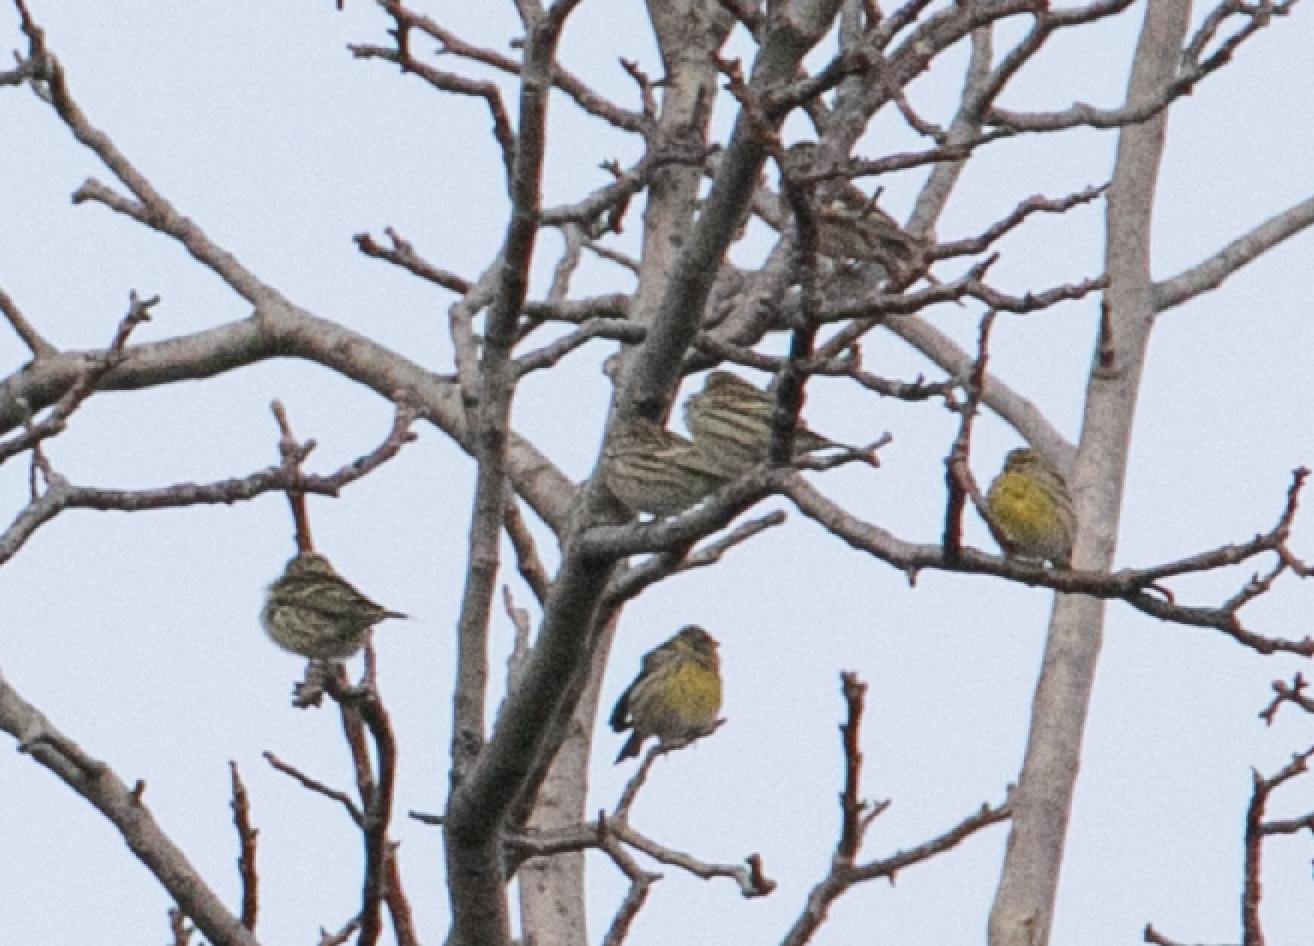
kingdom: Animalia
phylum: Chordata
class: Aves
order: Passeriformes
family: Fringillidae
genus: Serinus
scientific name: Serinus serinus
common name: European serin
